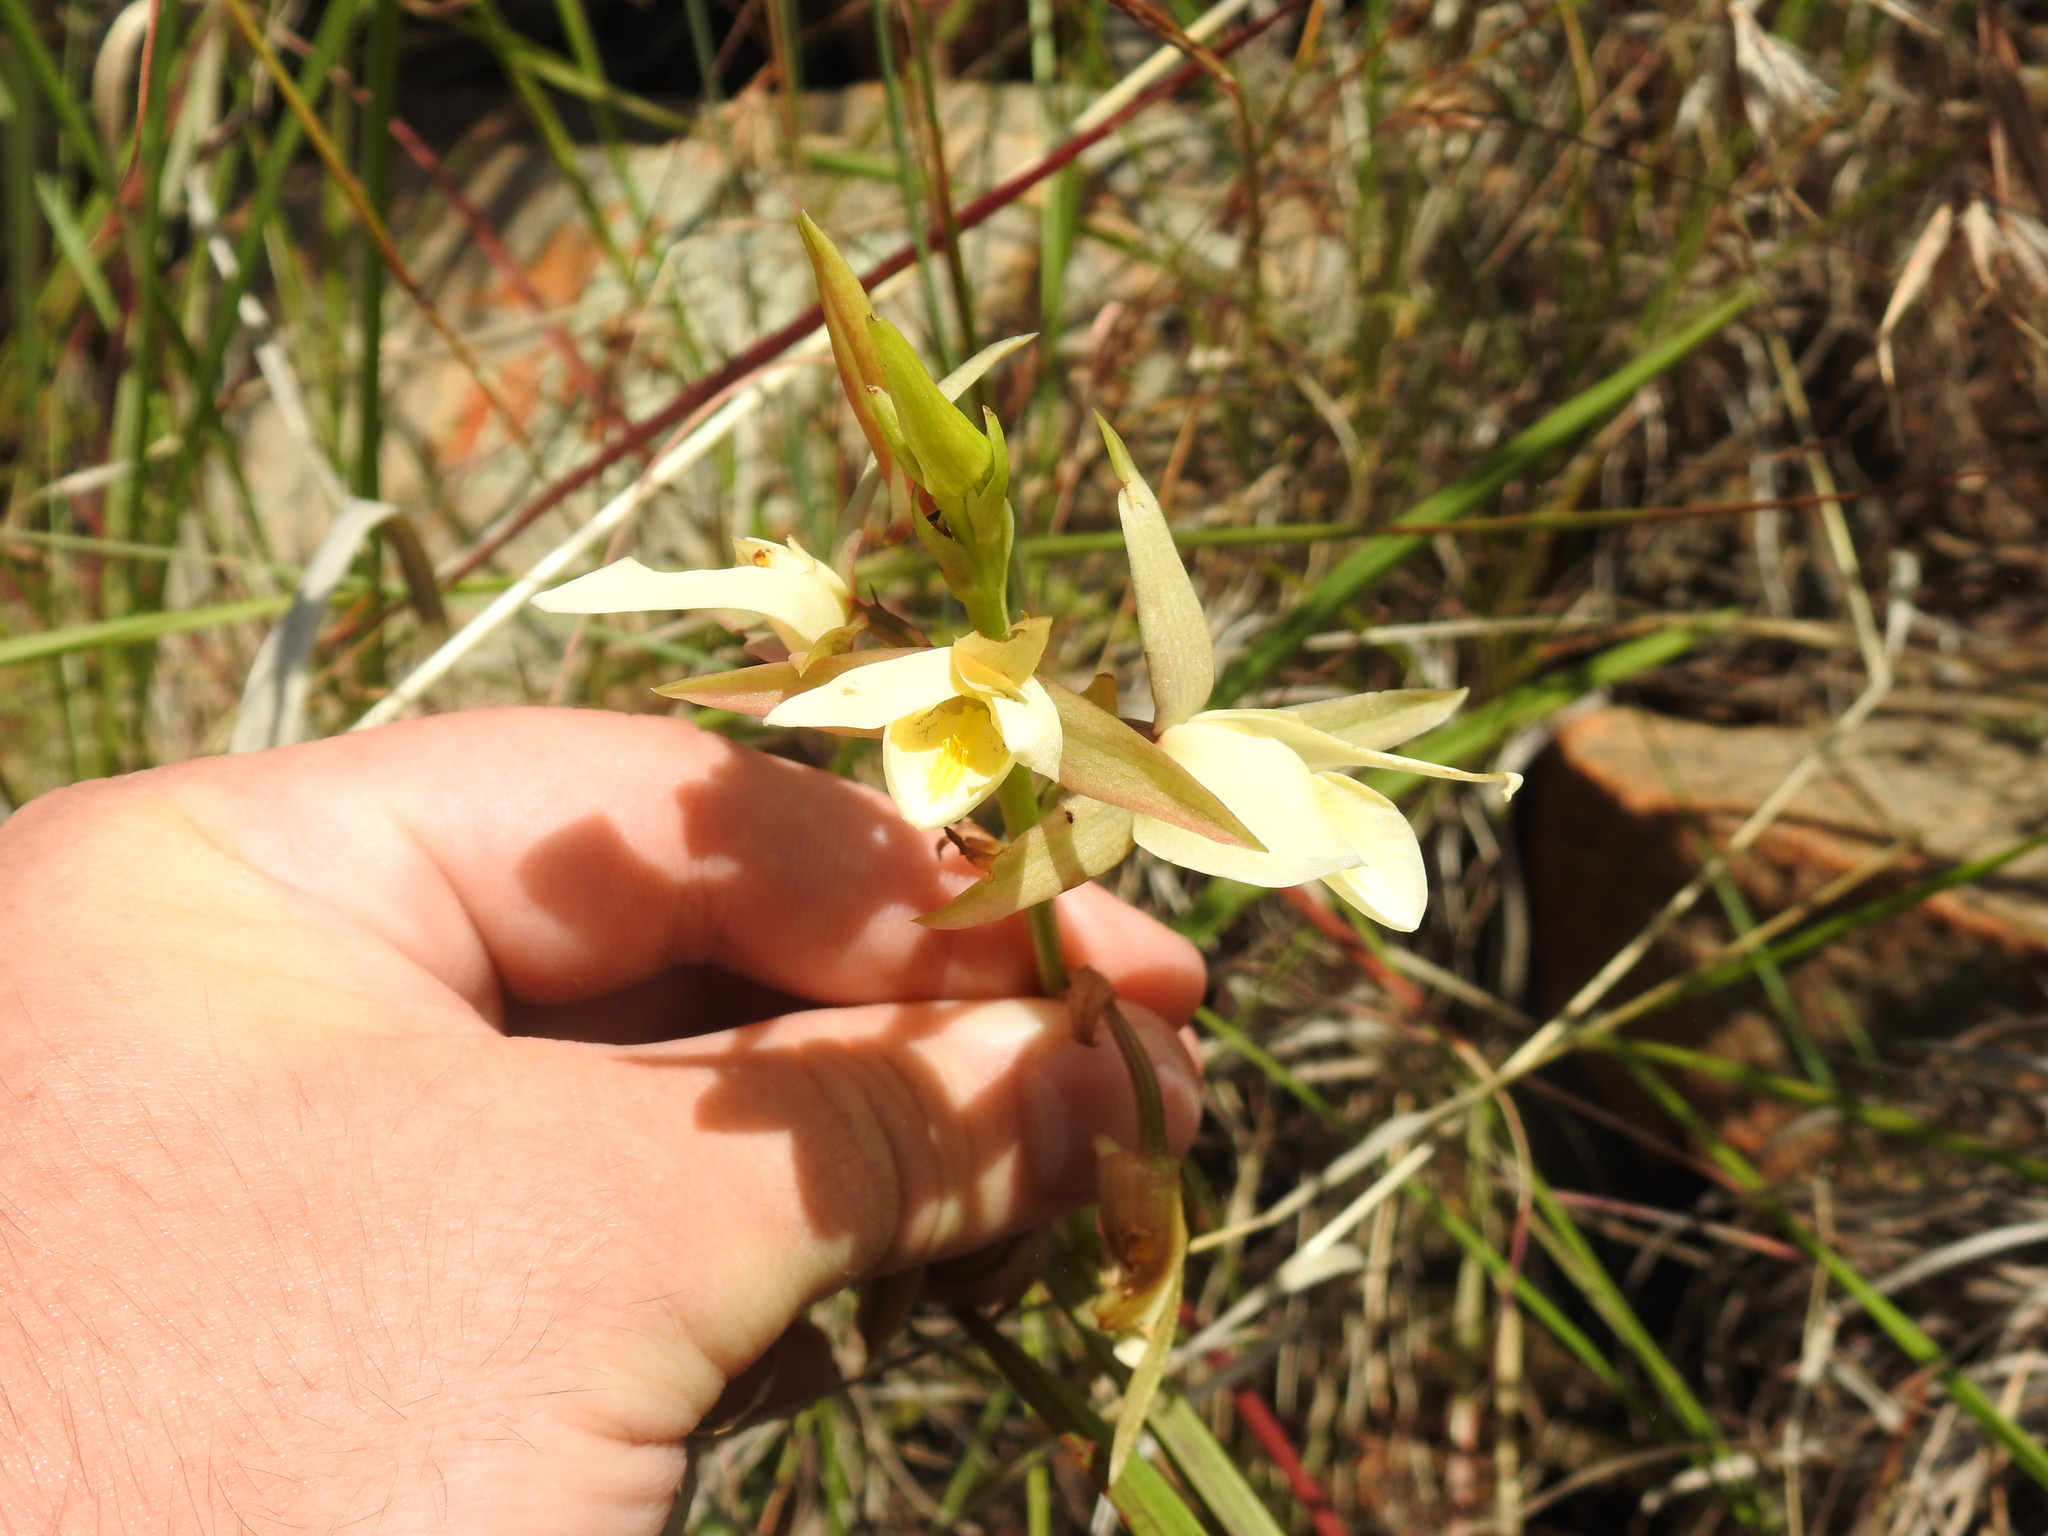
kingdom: Plantae
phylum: Tracheophyta
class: Liliopsida
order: Asparagales
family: Orchidaceae
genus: Eulophia
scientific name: Eulophia ovalis
